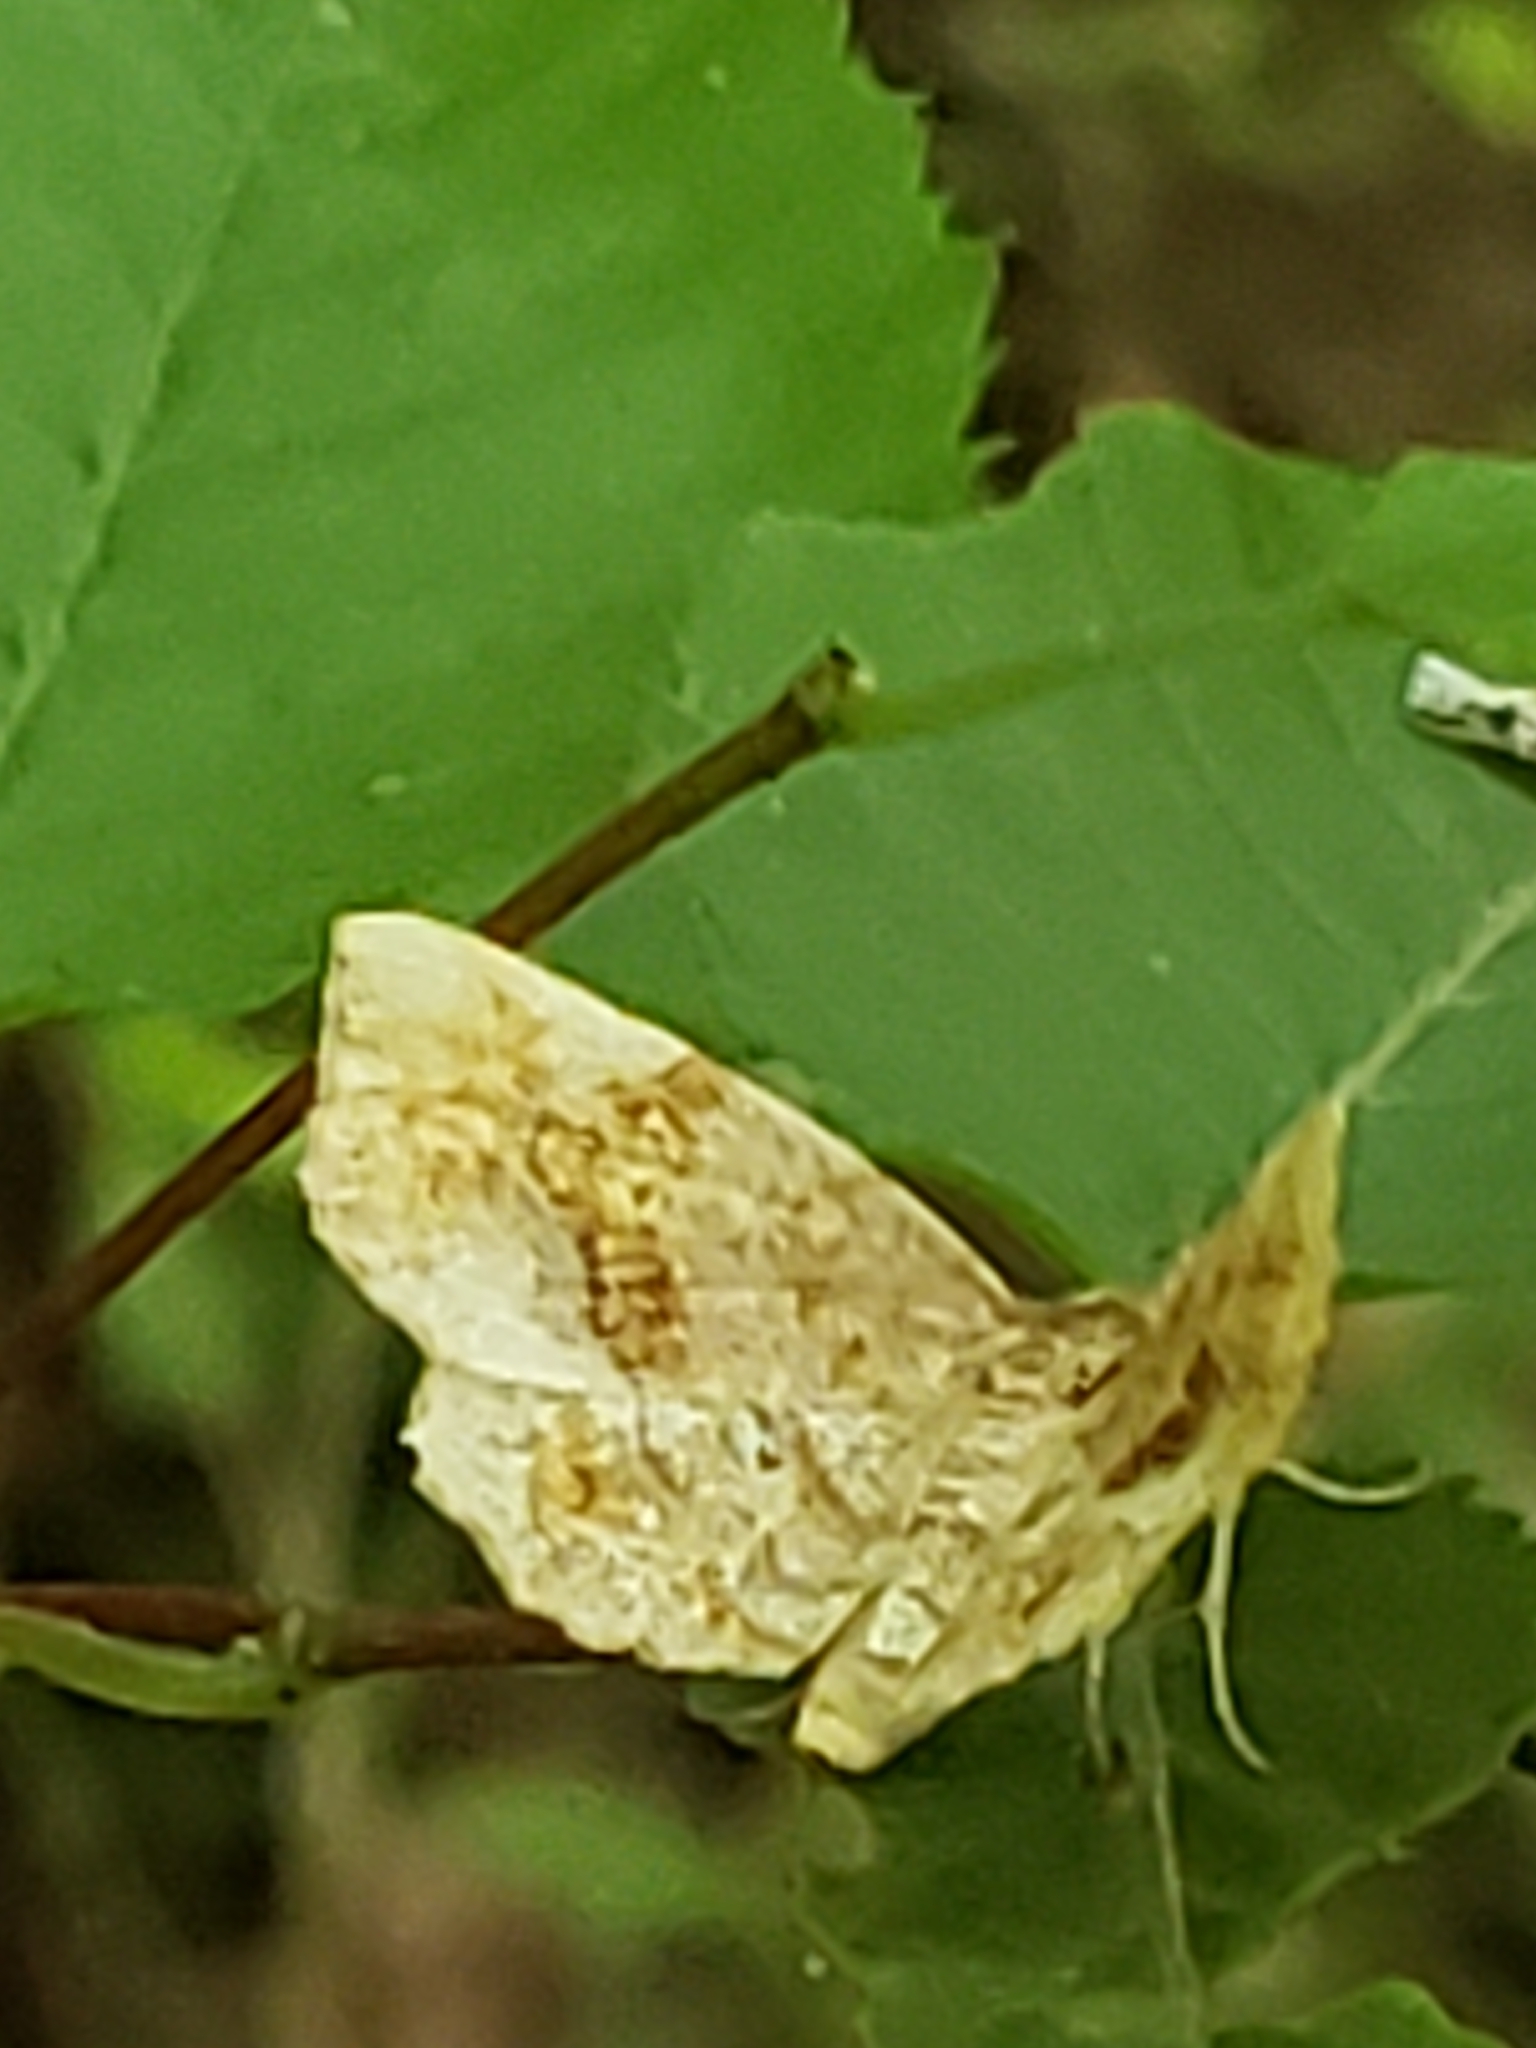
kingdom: Animalia
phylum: Arthropoda
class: Insecta
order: Lepidoptera
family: Erebidae
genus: Pangrapta
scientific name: Pangrapta decoralis
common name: Decorated owlet
